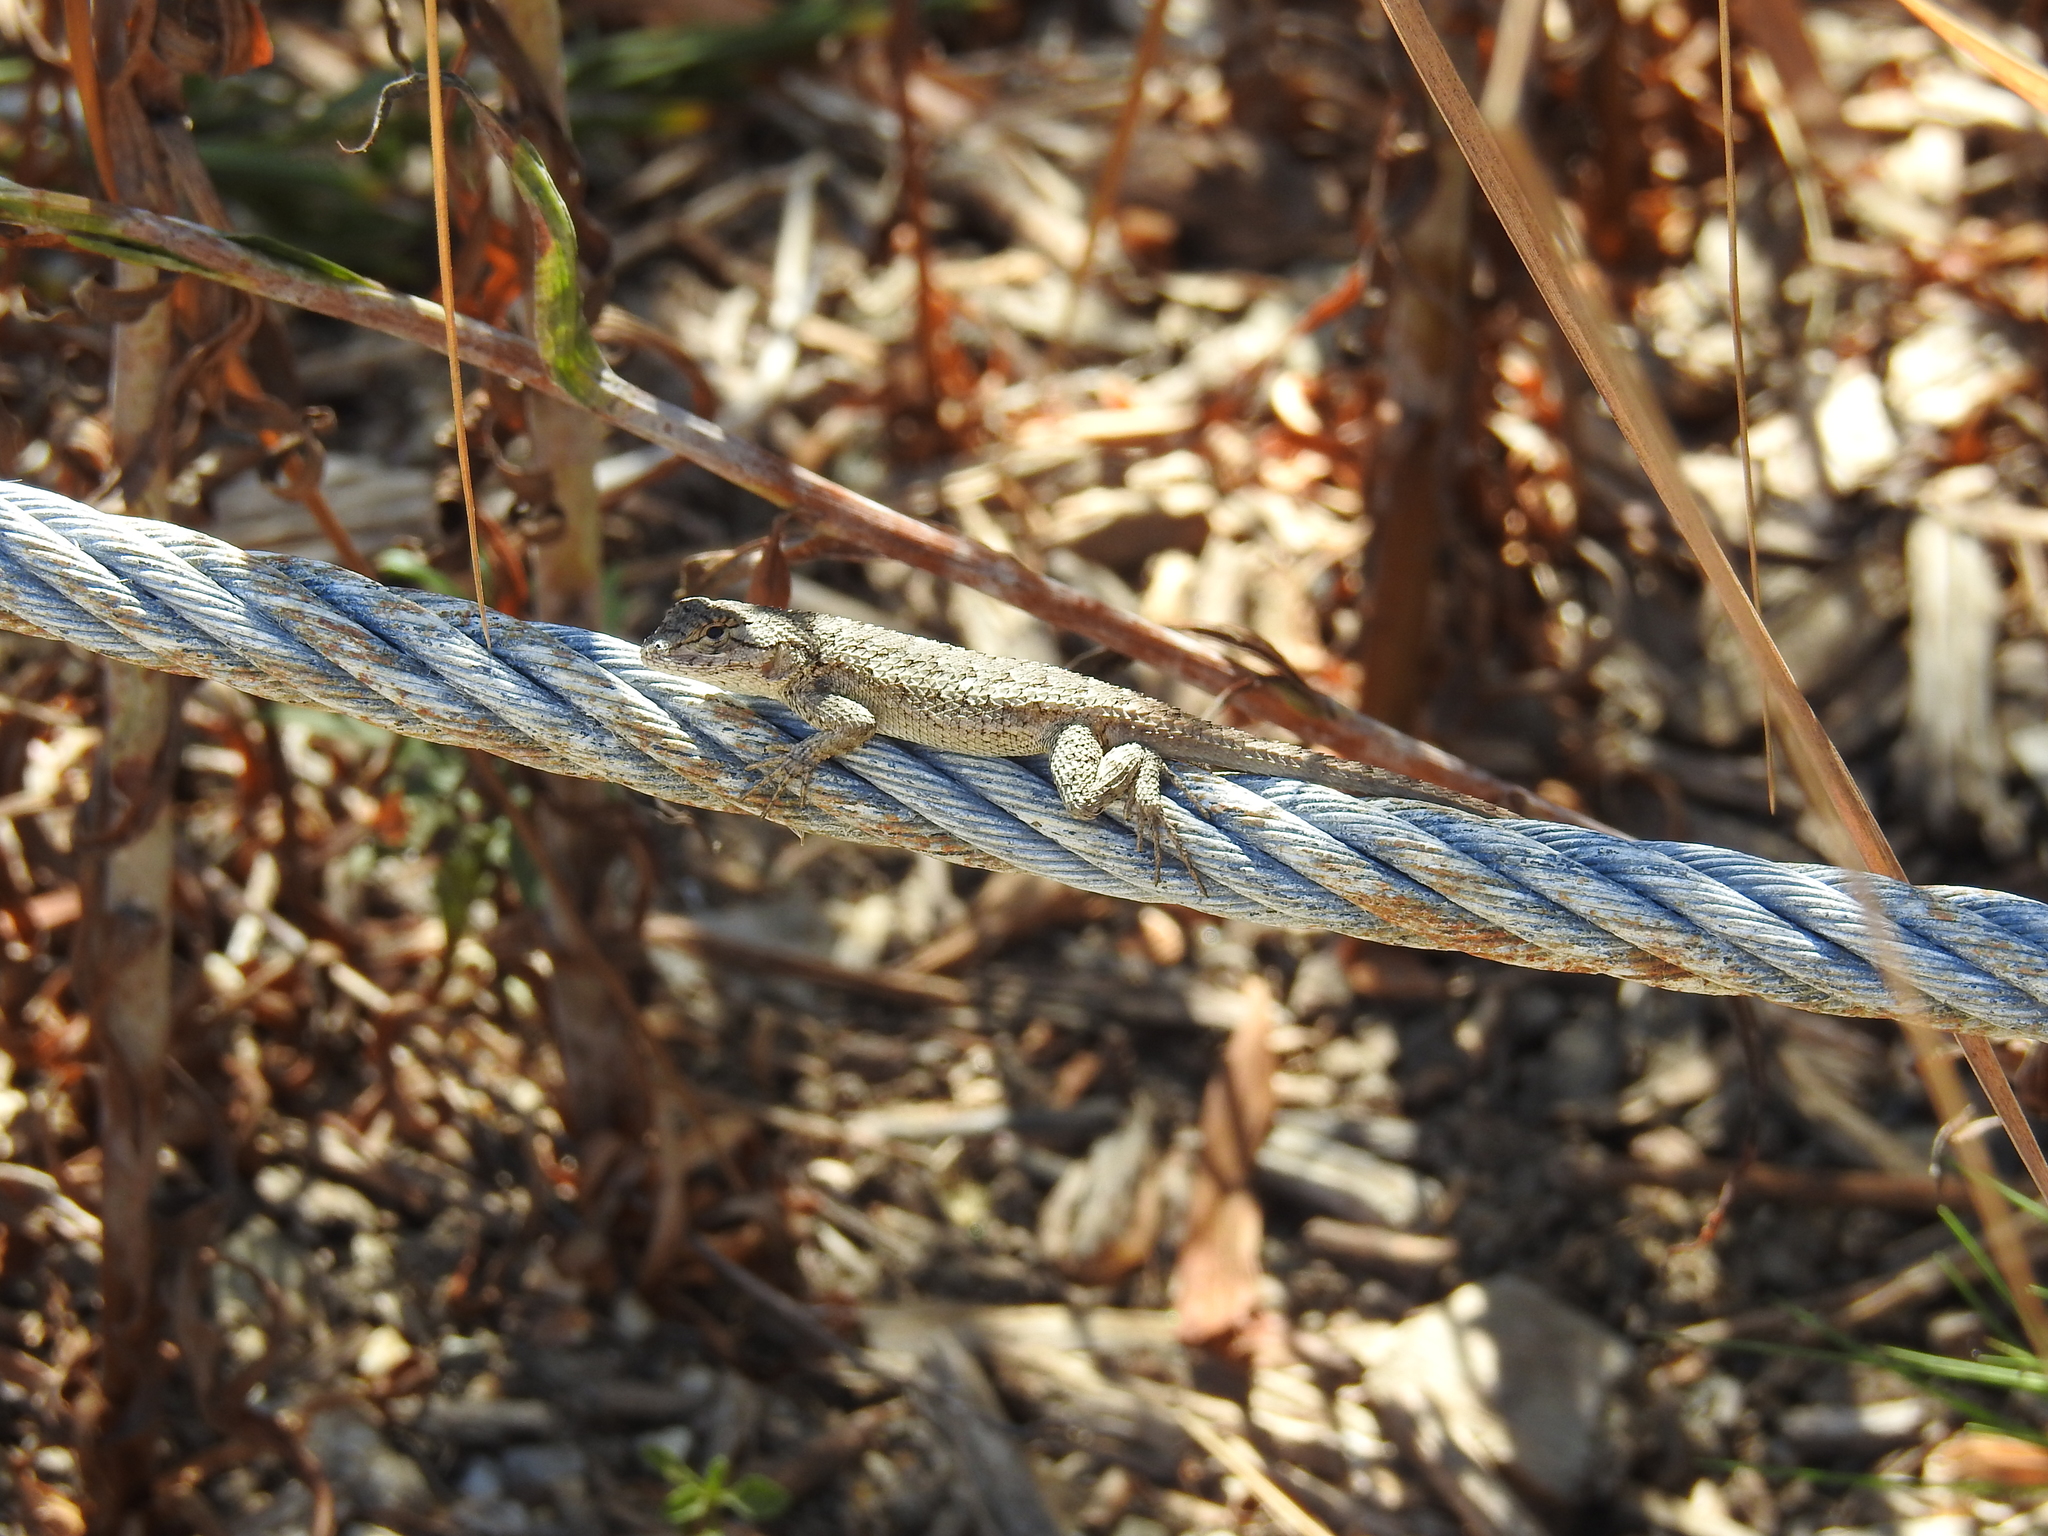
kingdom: Animalia
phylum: Chordata
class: Squamata
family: Phrynosomatidae
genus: Sceloporus
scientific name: Sceloporus occidentalis
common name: Western fence lizard
